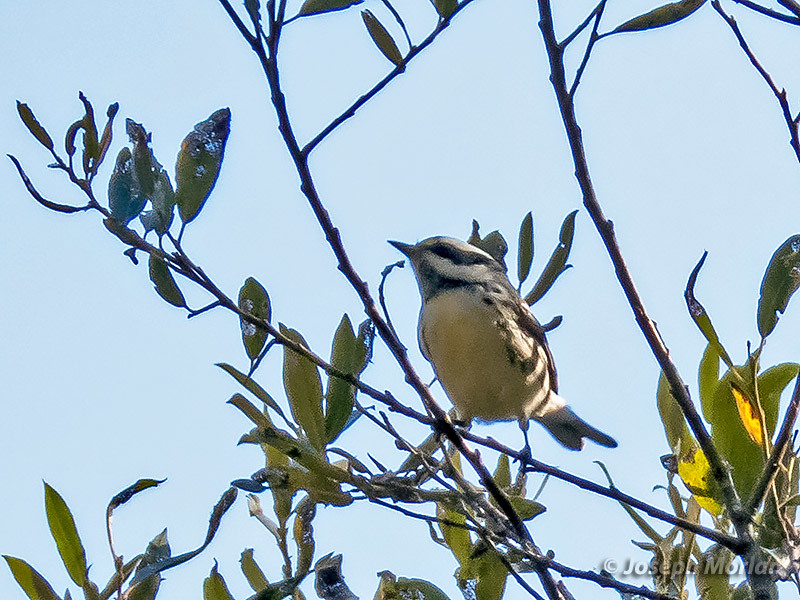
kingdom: Animalia
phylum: Chordata
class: Aves
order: Passeriformes
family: Parulidae
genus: Setophaga
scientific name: Setophaga nigrescens
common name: Black-throated gray warbler
